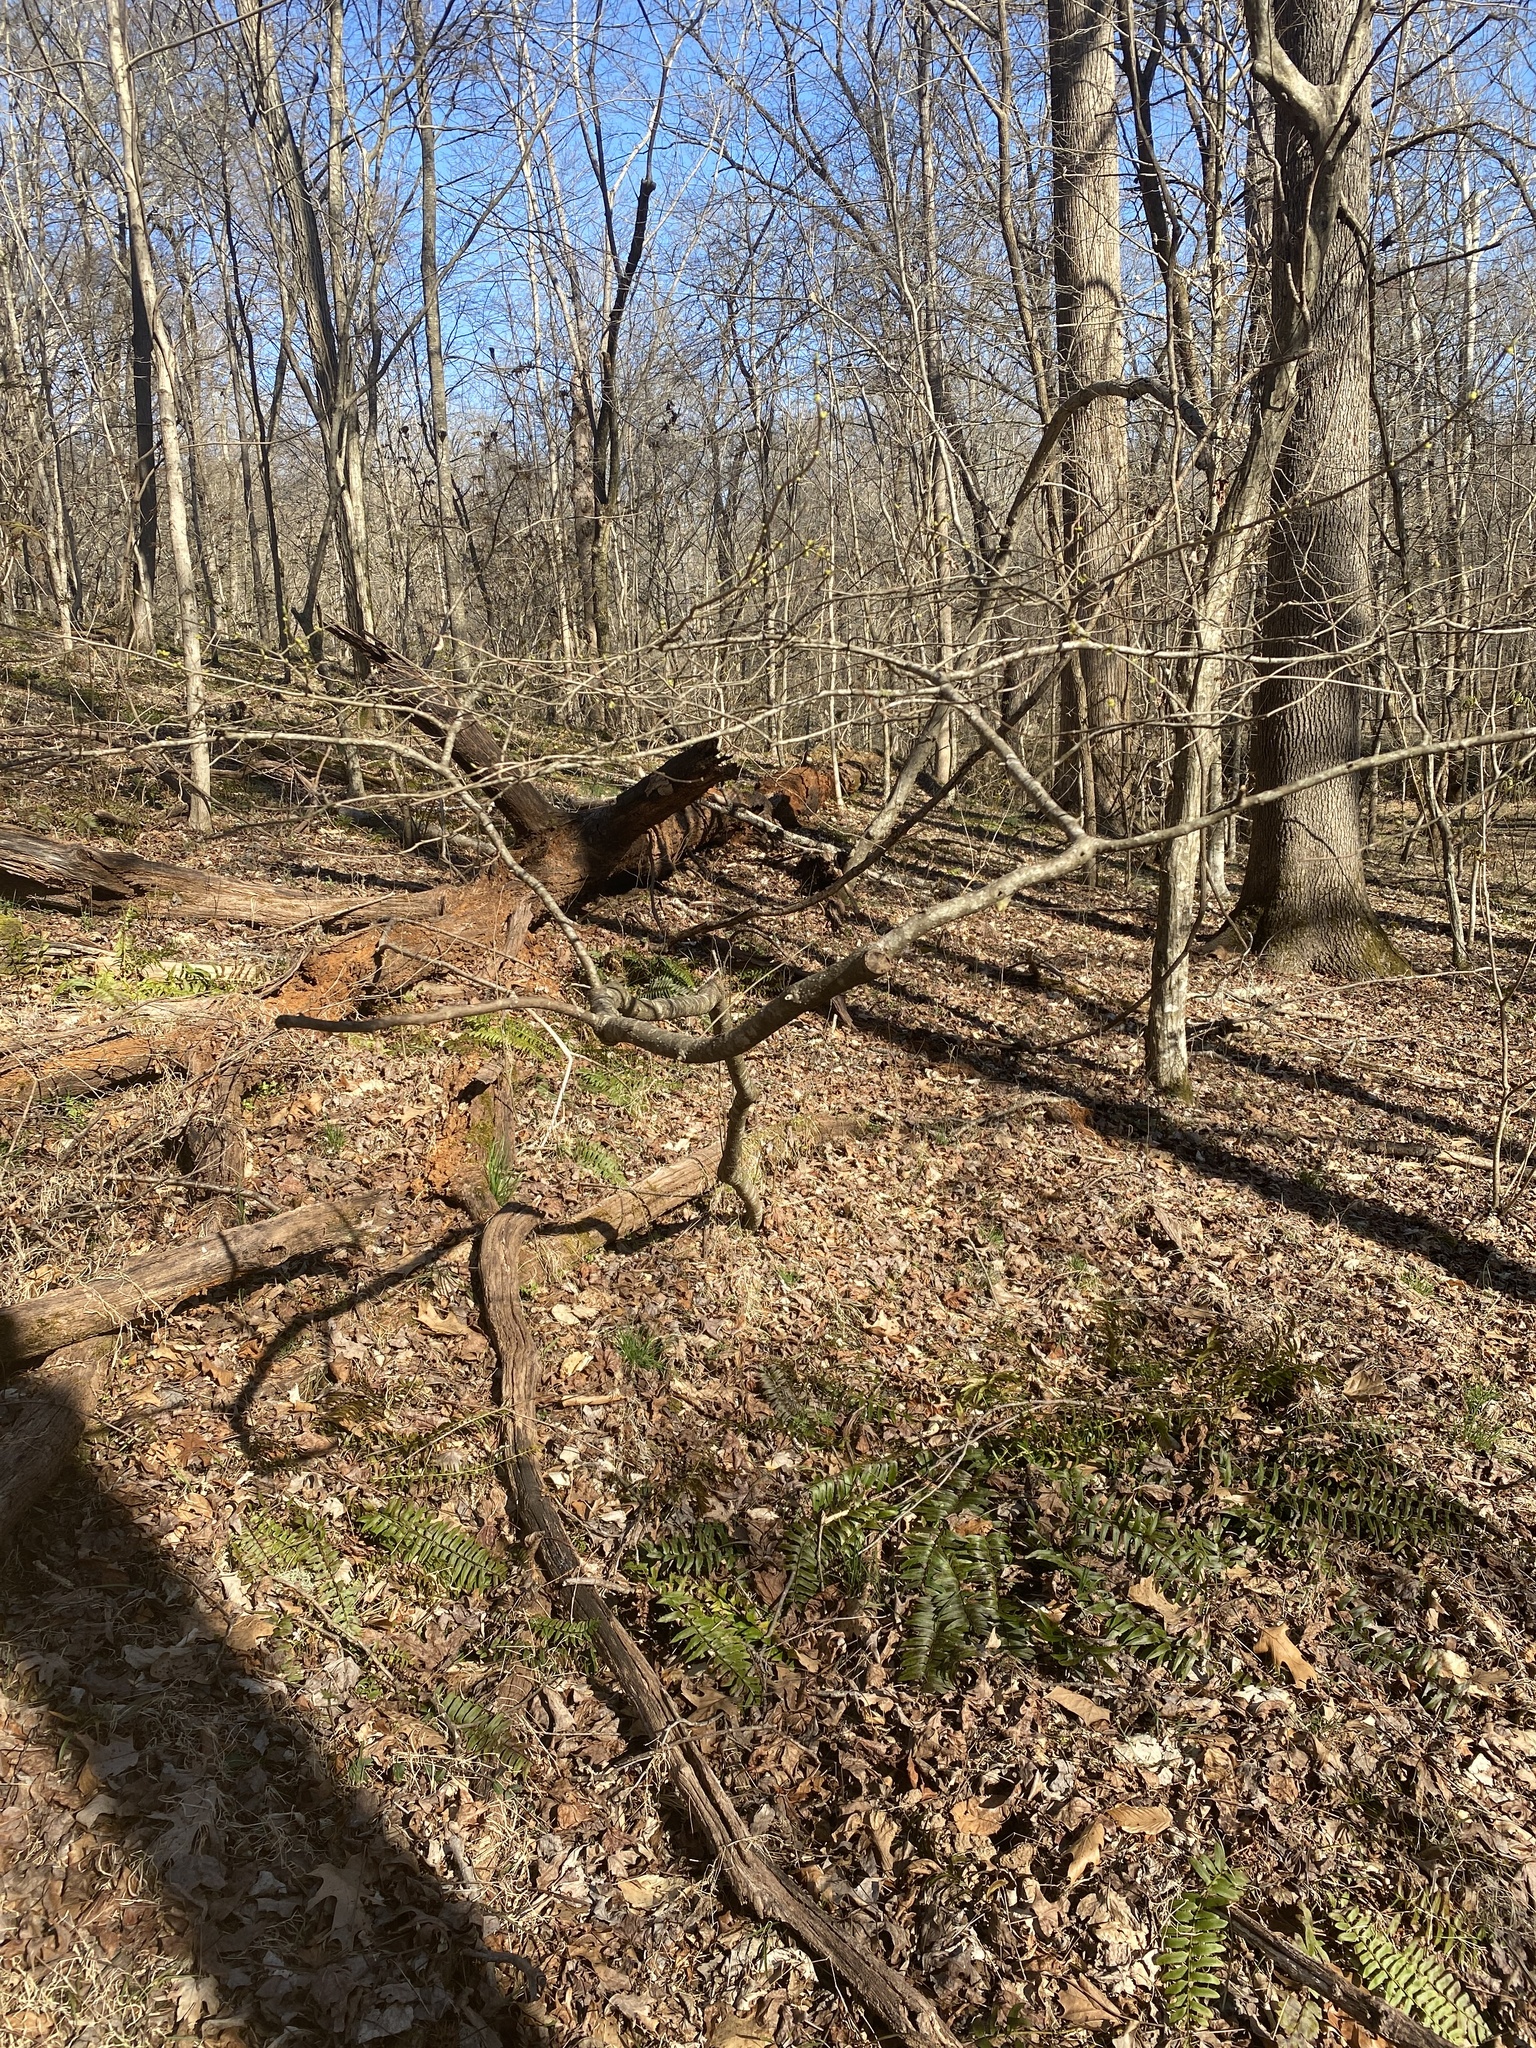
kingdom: Plantae
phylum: Tracheophyta
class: Magnoliopsida
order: Laurales
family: Lauraceae
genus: Lindera
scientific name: Lindera benzoin
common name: Spicebush
